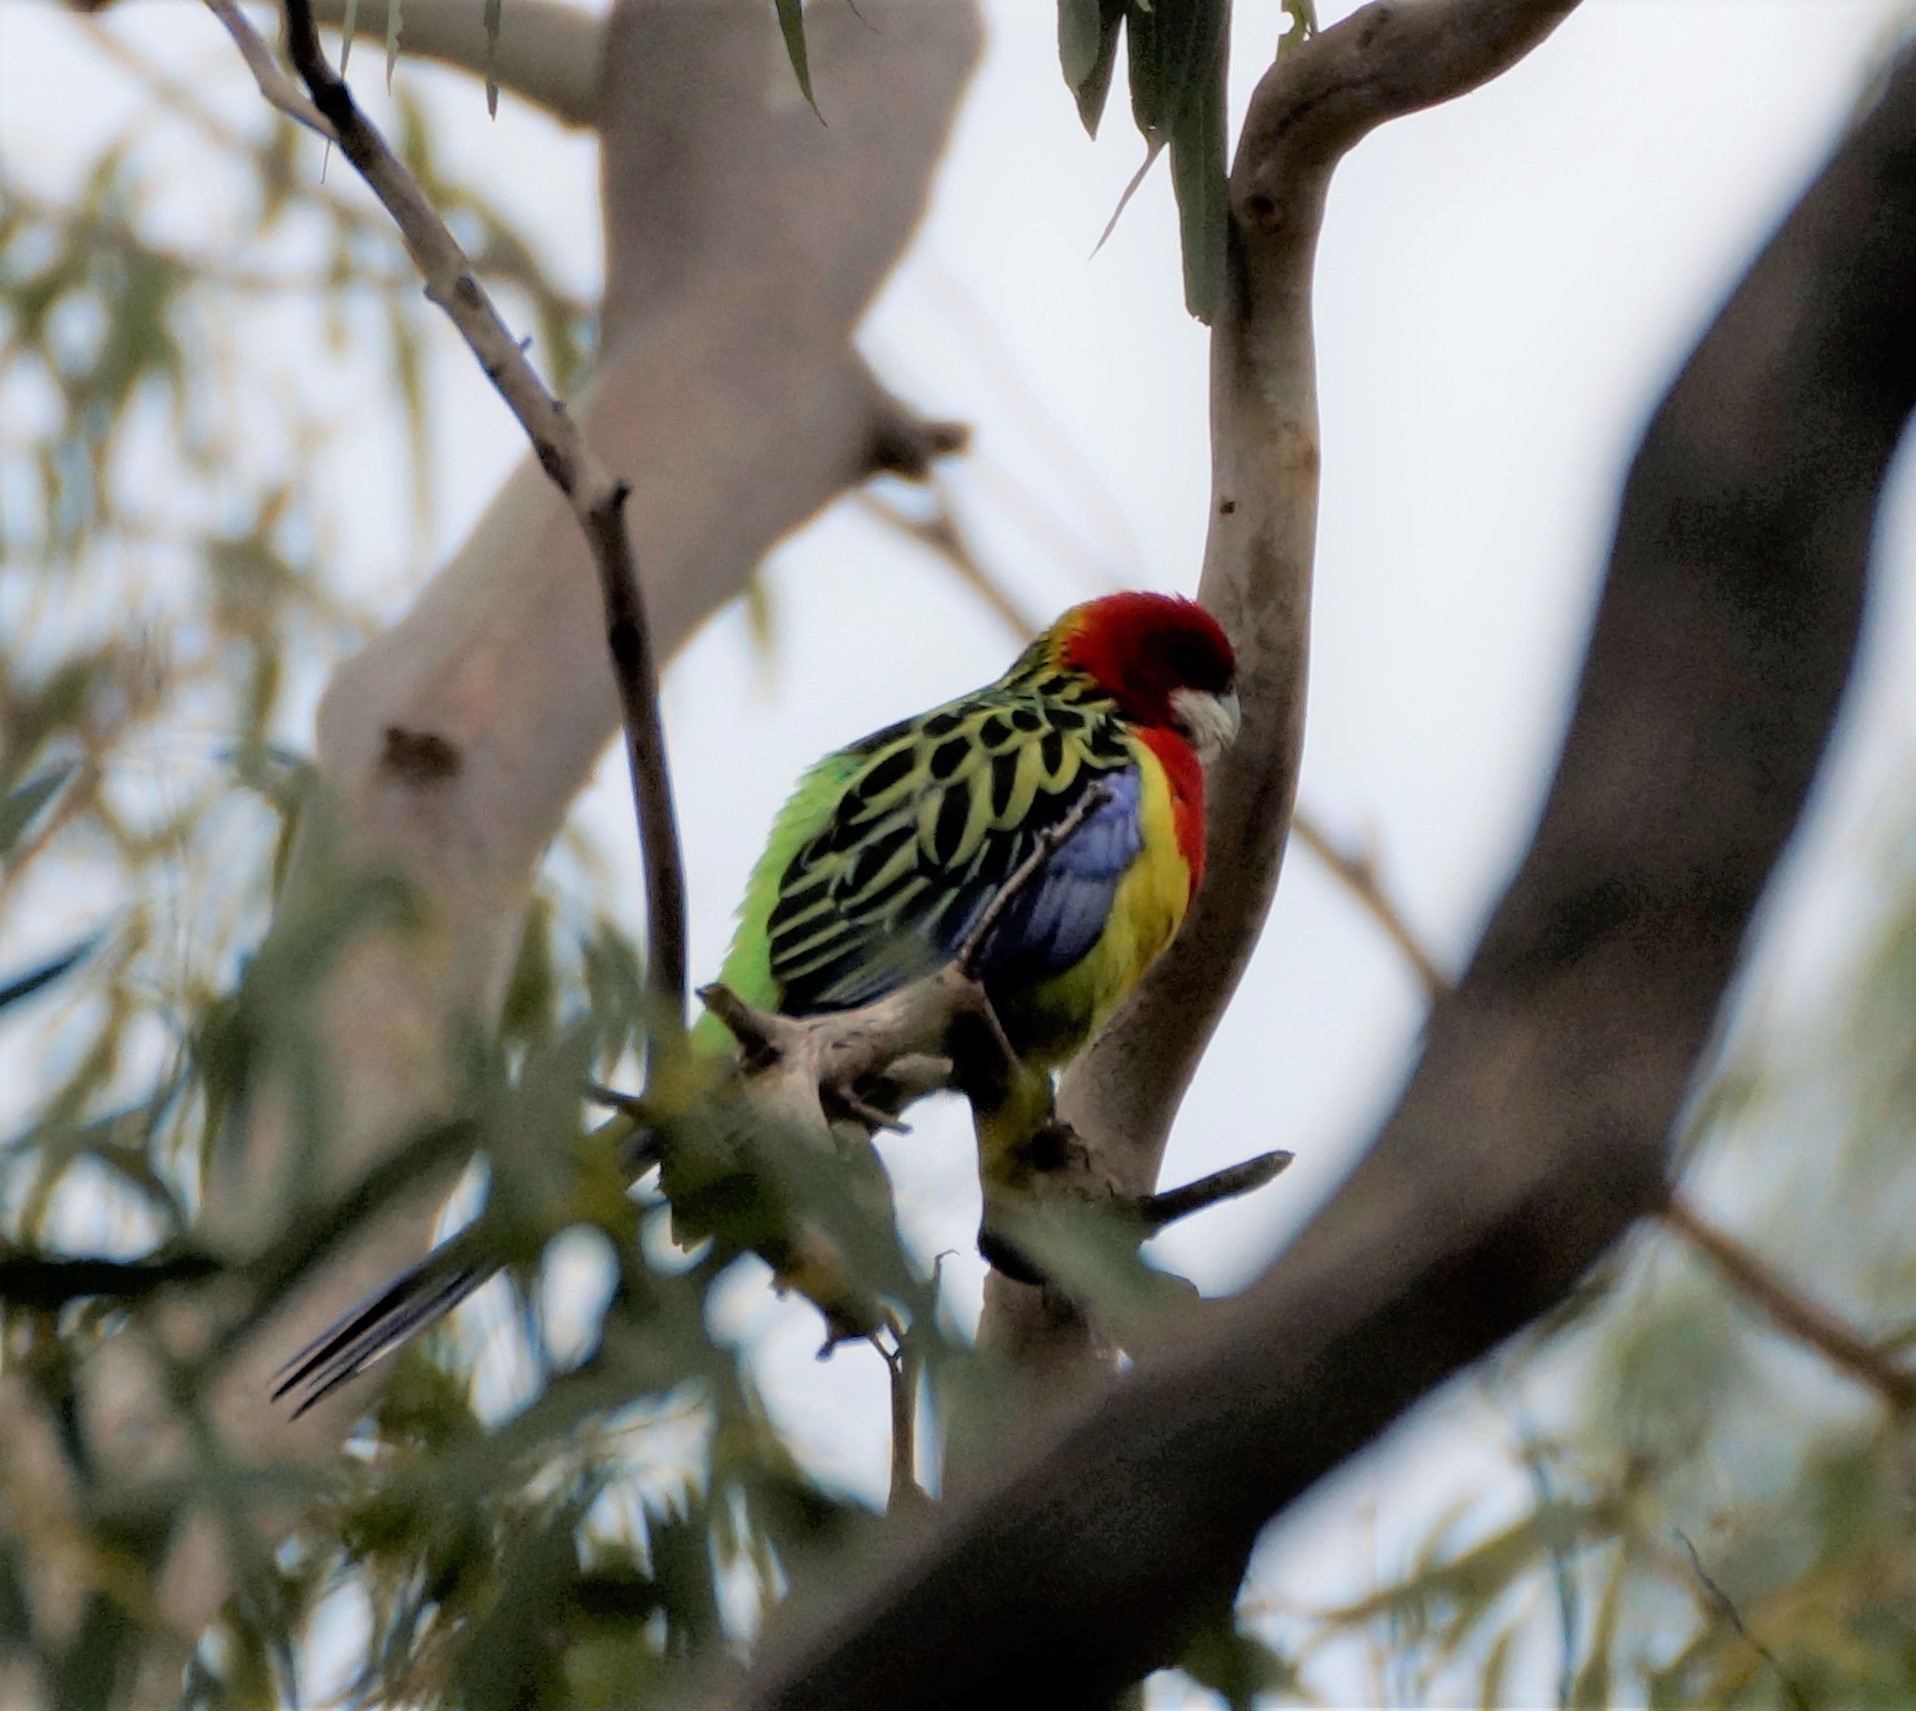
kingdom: Animalia
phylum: Chordata
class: Aves
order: Psittaciformes
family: Psittacidae
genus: Platycercus
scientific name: Platycercus eximius
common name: Eastern rosella
